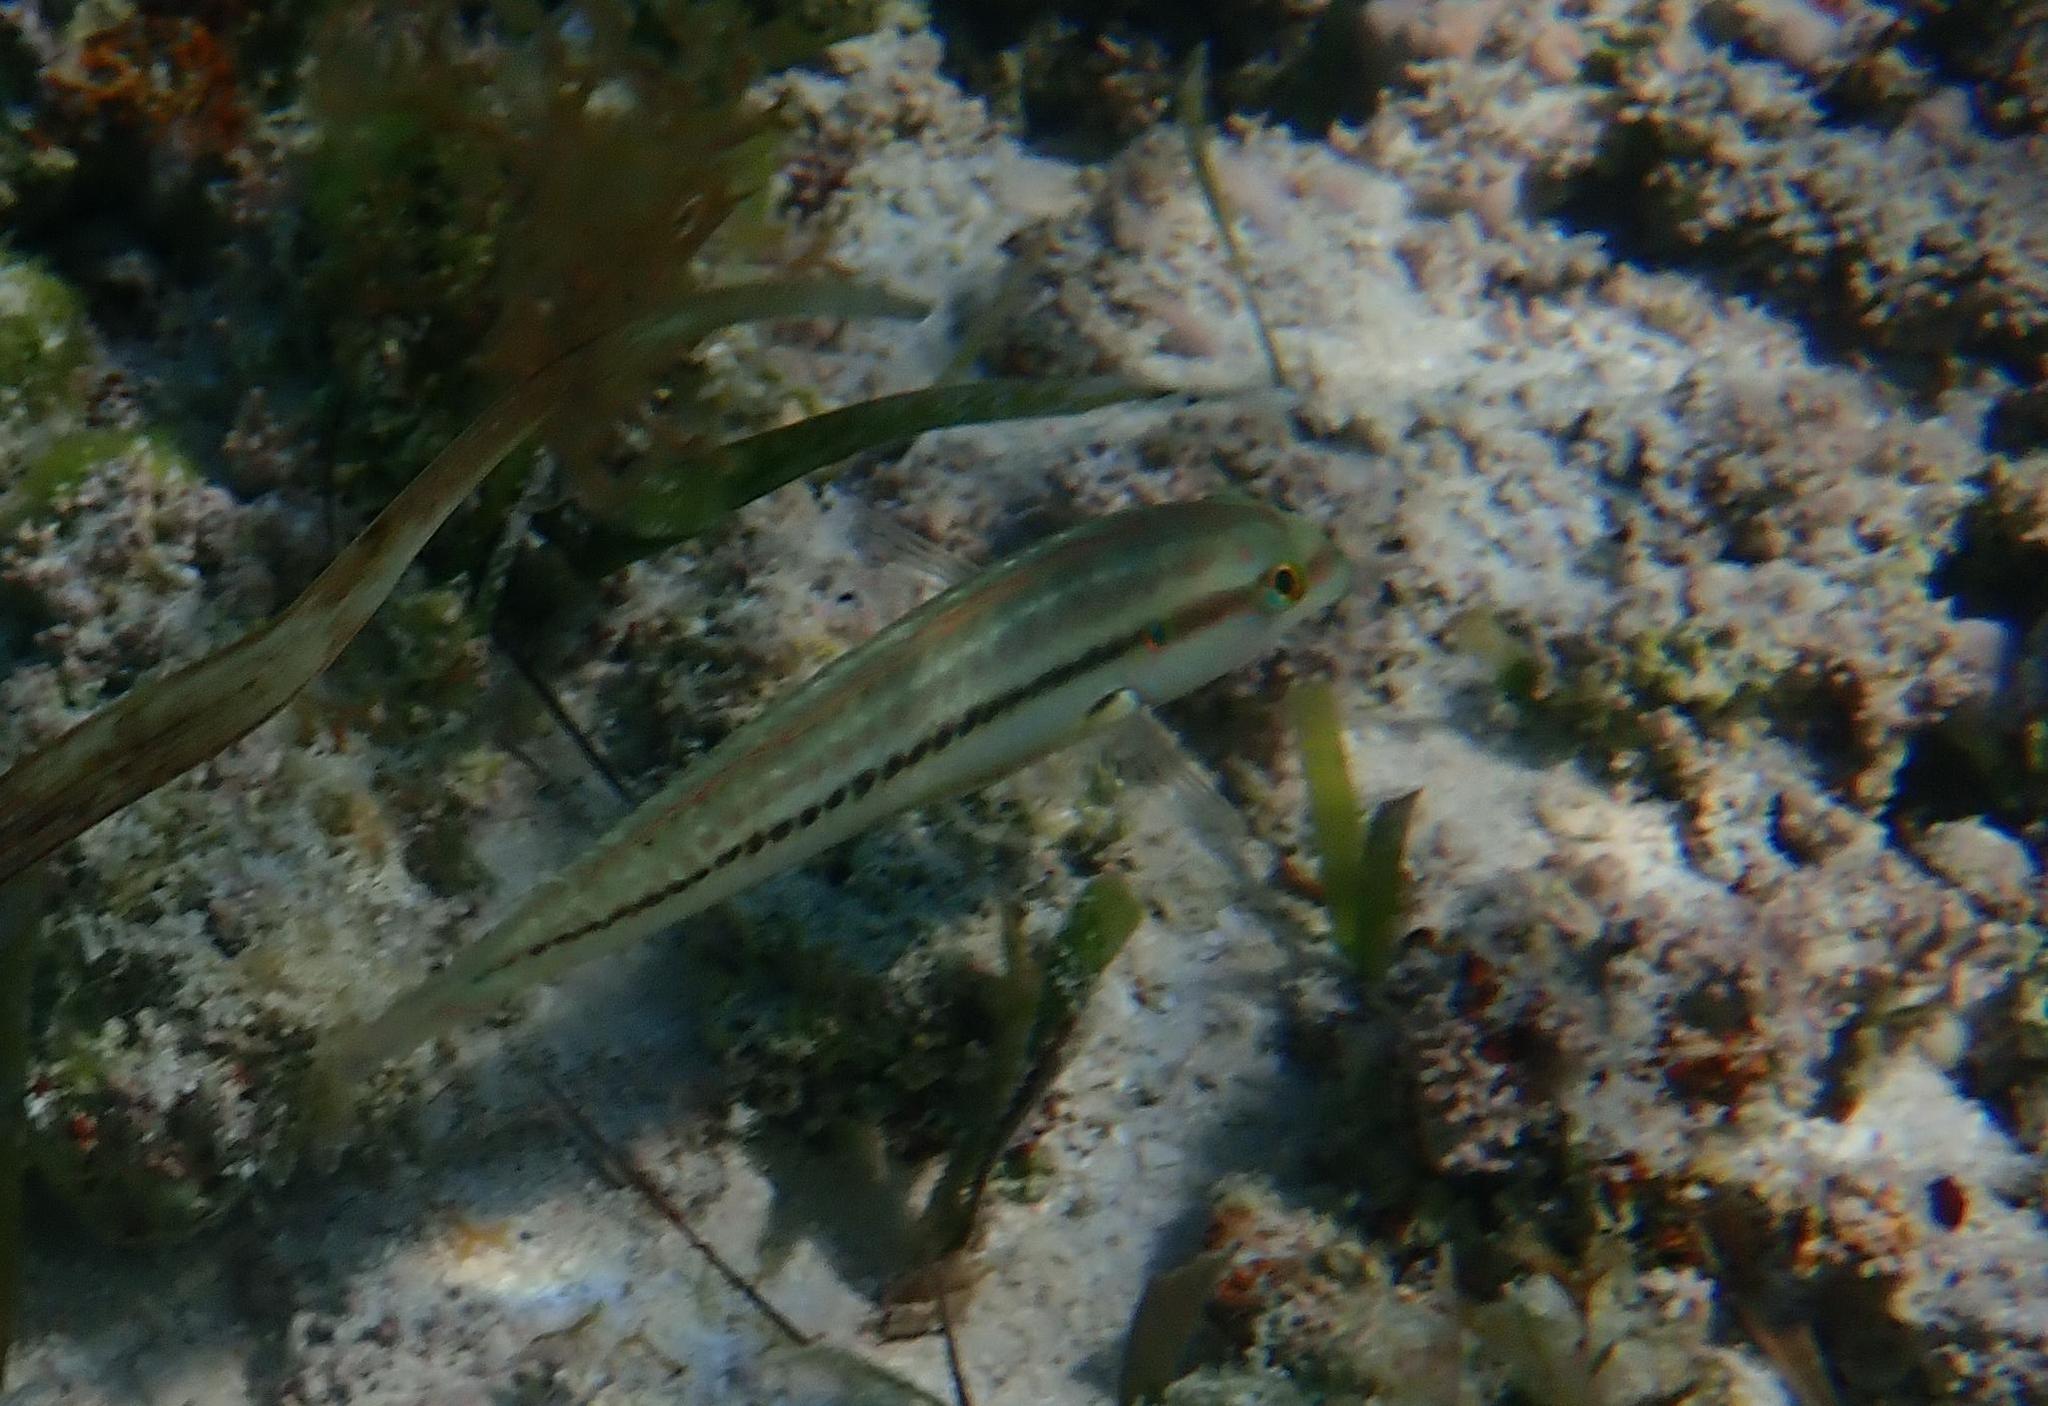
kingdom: Animalia
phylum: Chordata
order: Perciformes
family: Labridae
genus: Halichoeres
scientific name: Halichoeres bivittatus
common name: Slippery dick
